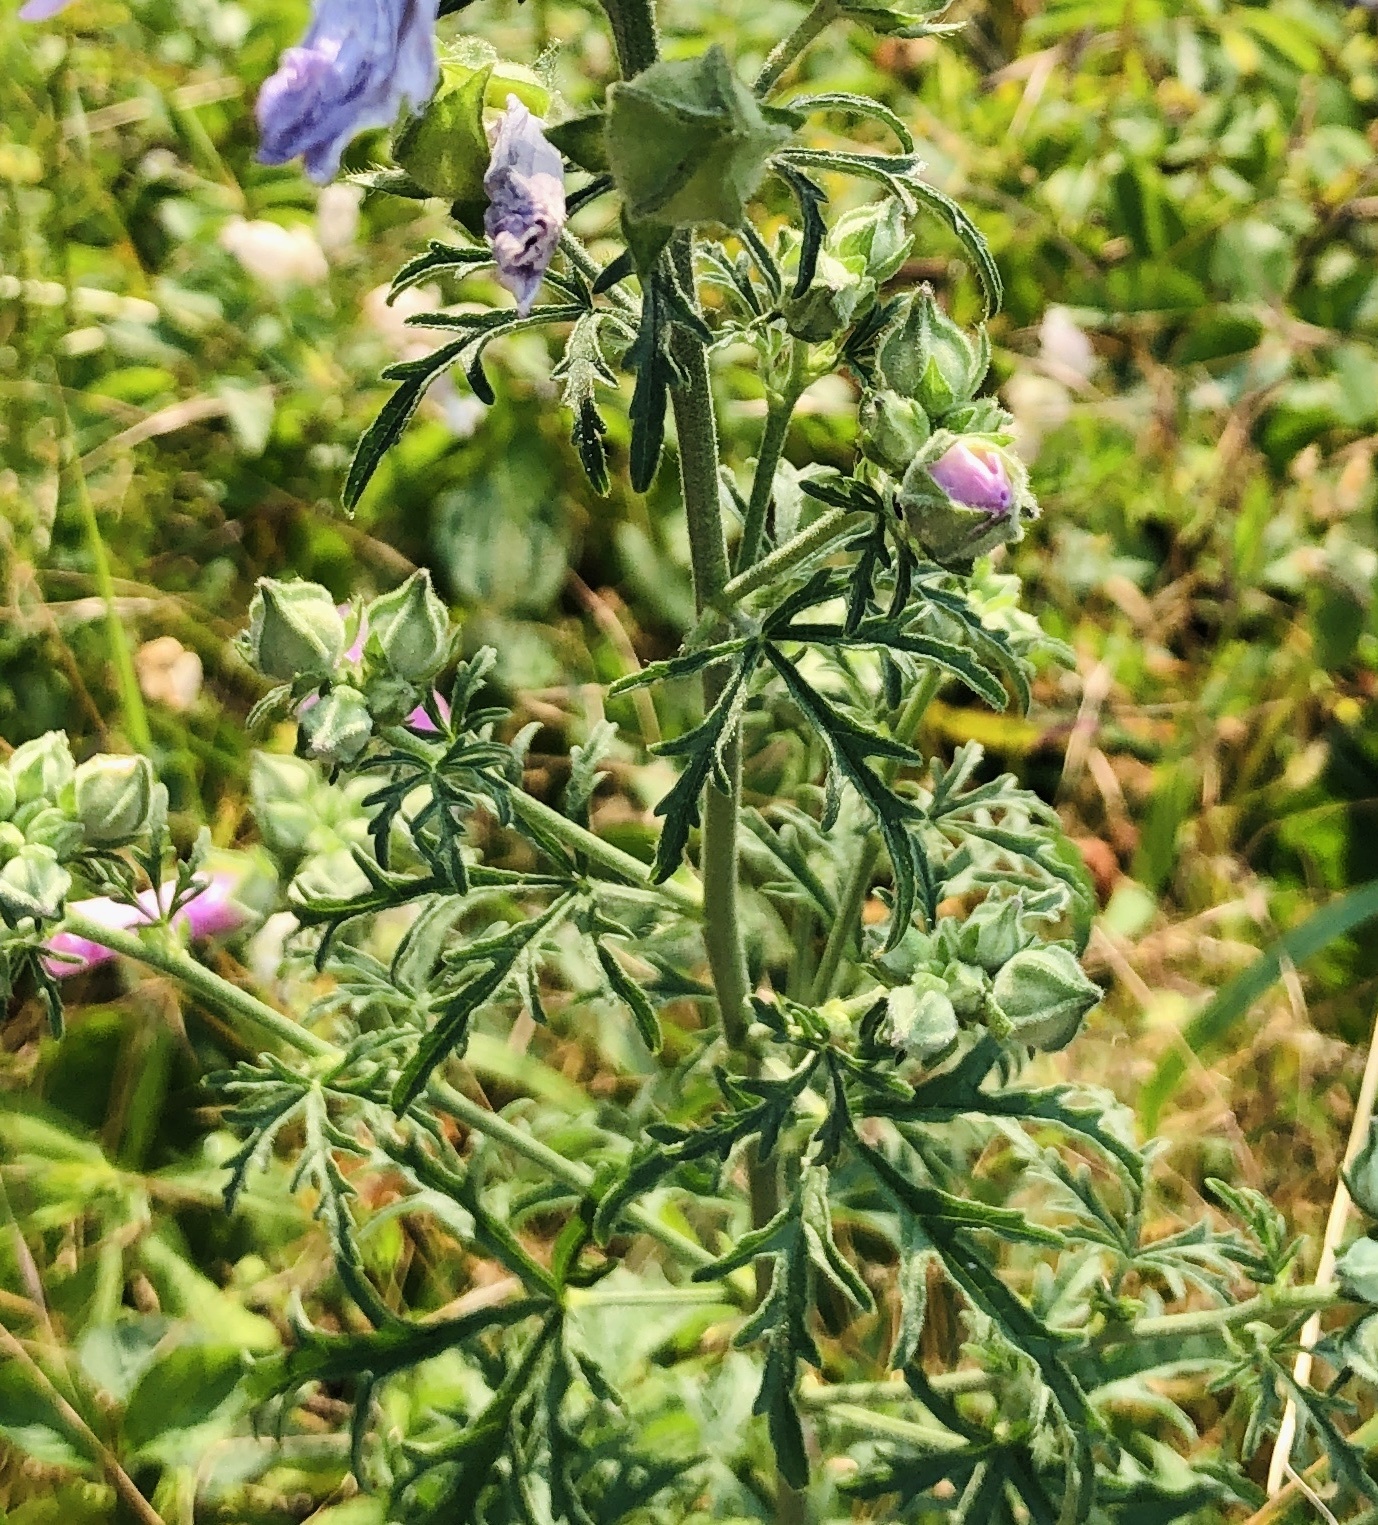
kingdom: Plantae
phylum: Tracheophyta
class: Magnoliopsida
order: Malvales
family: Malvaceae
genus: Malva
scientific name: Malva alcea
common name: Greater musk-mallow
